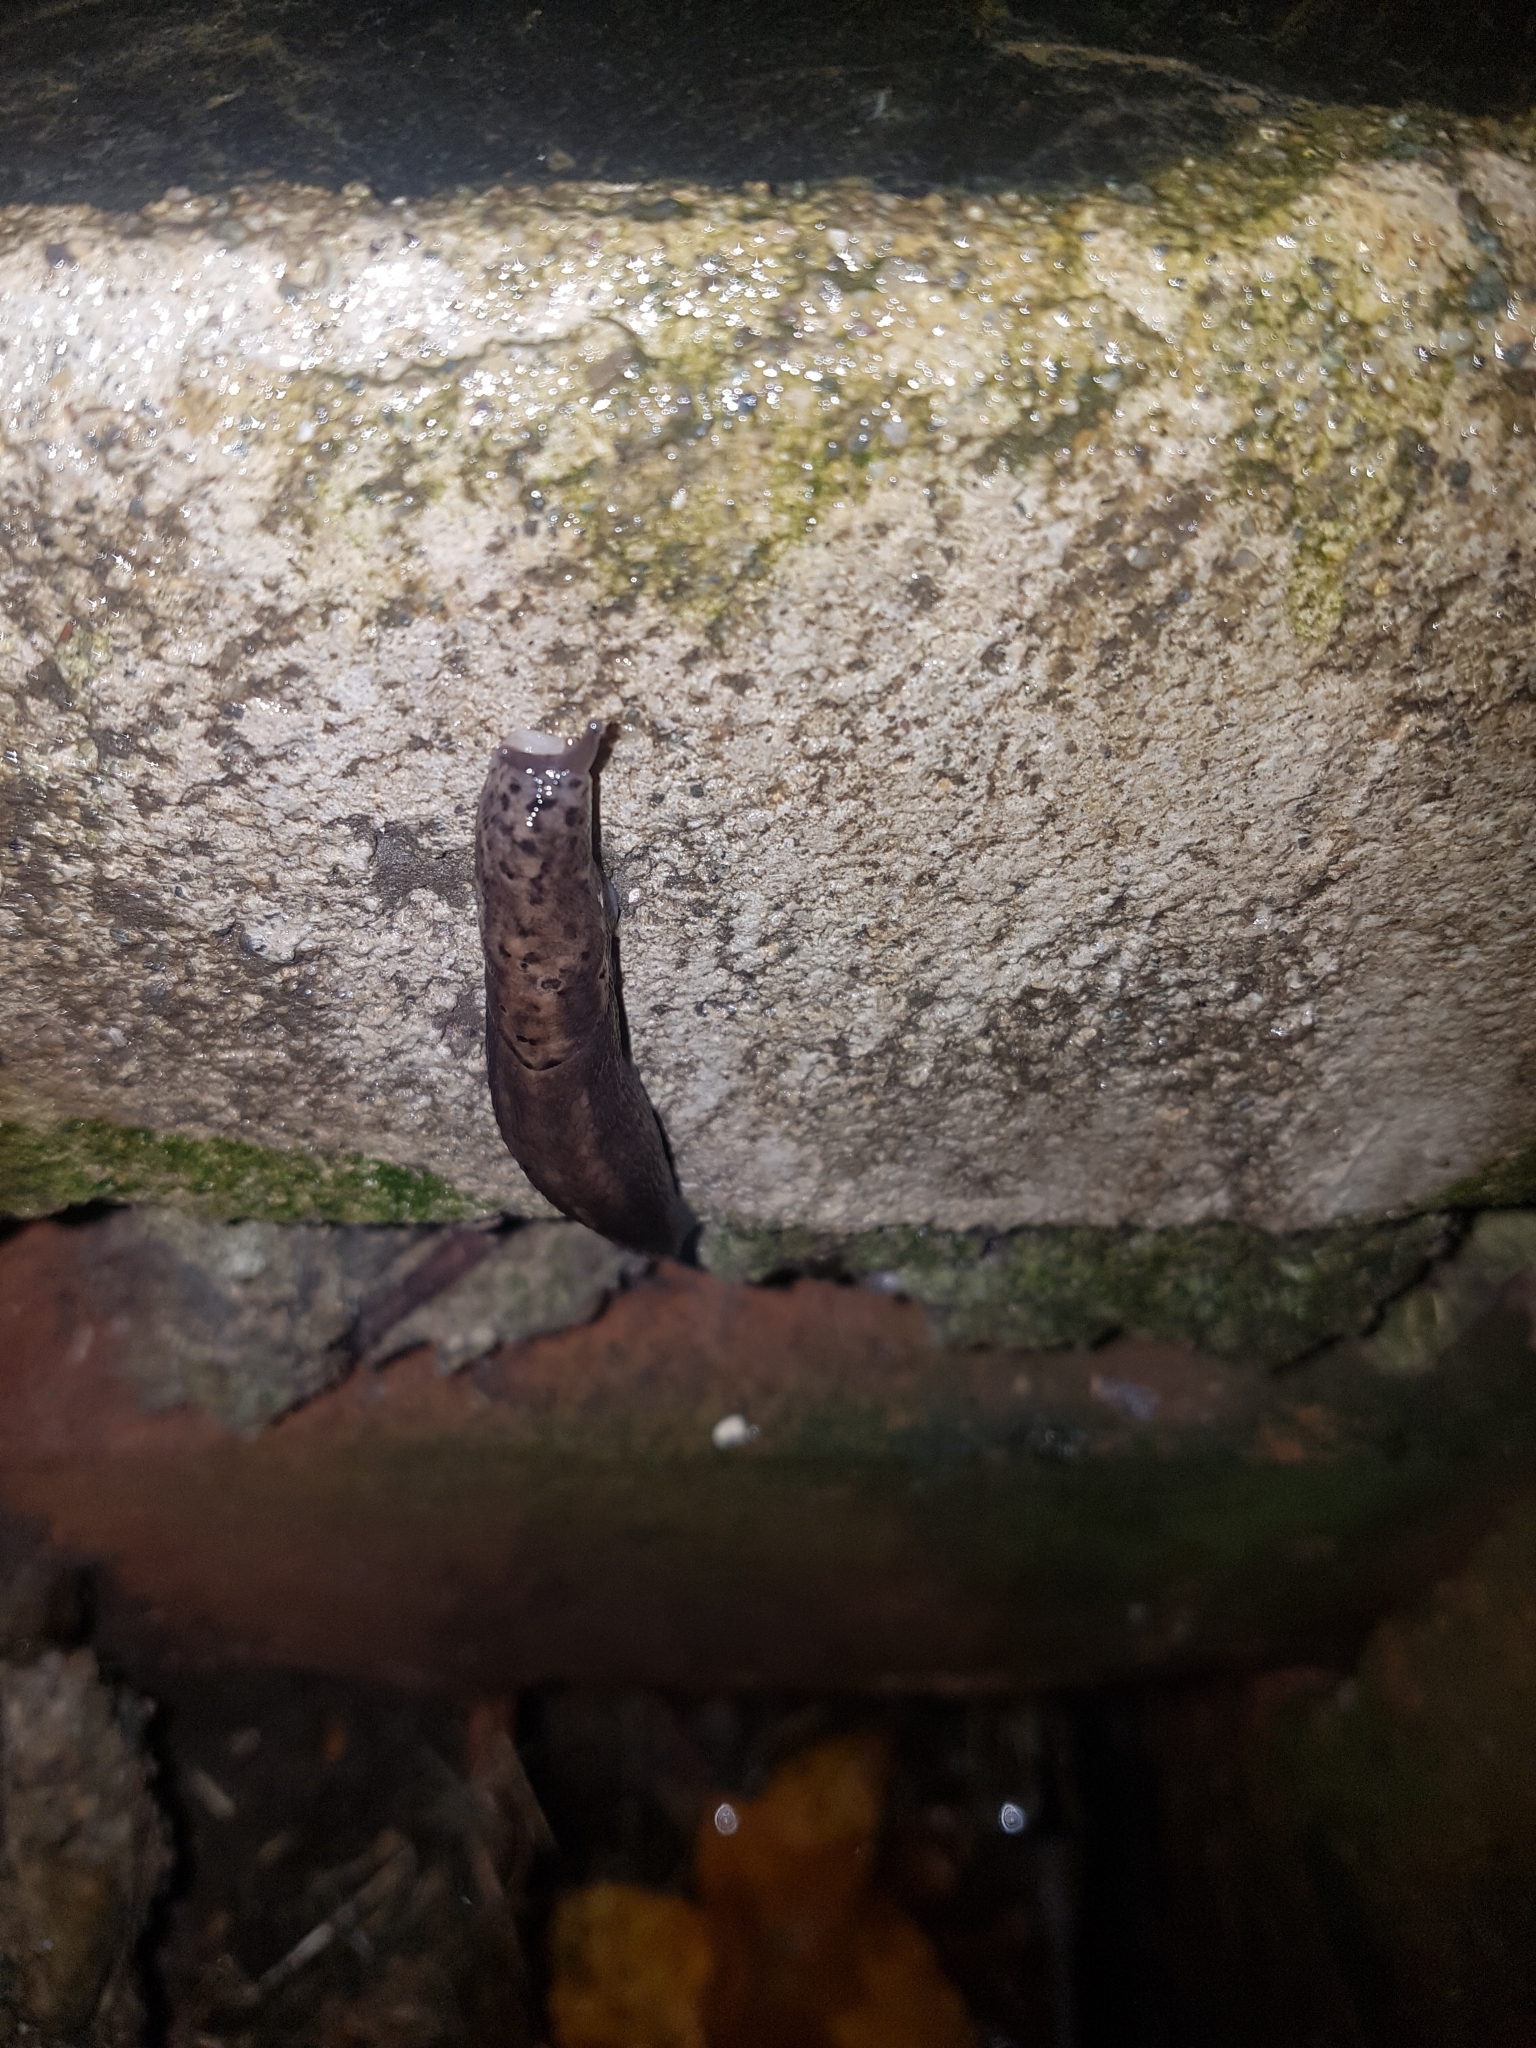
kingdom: Animalia
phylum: Mollusca
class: Gastropoda
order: Stylommatophora
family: Limacidae
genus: Limax
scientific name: Limax maximus
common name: Great grey slug
